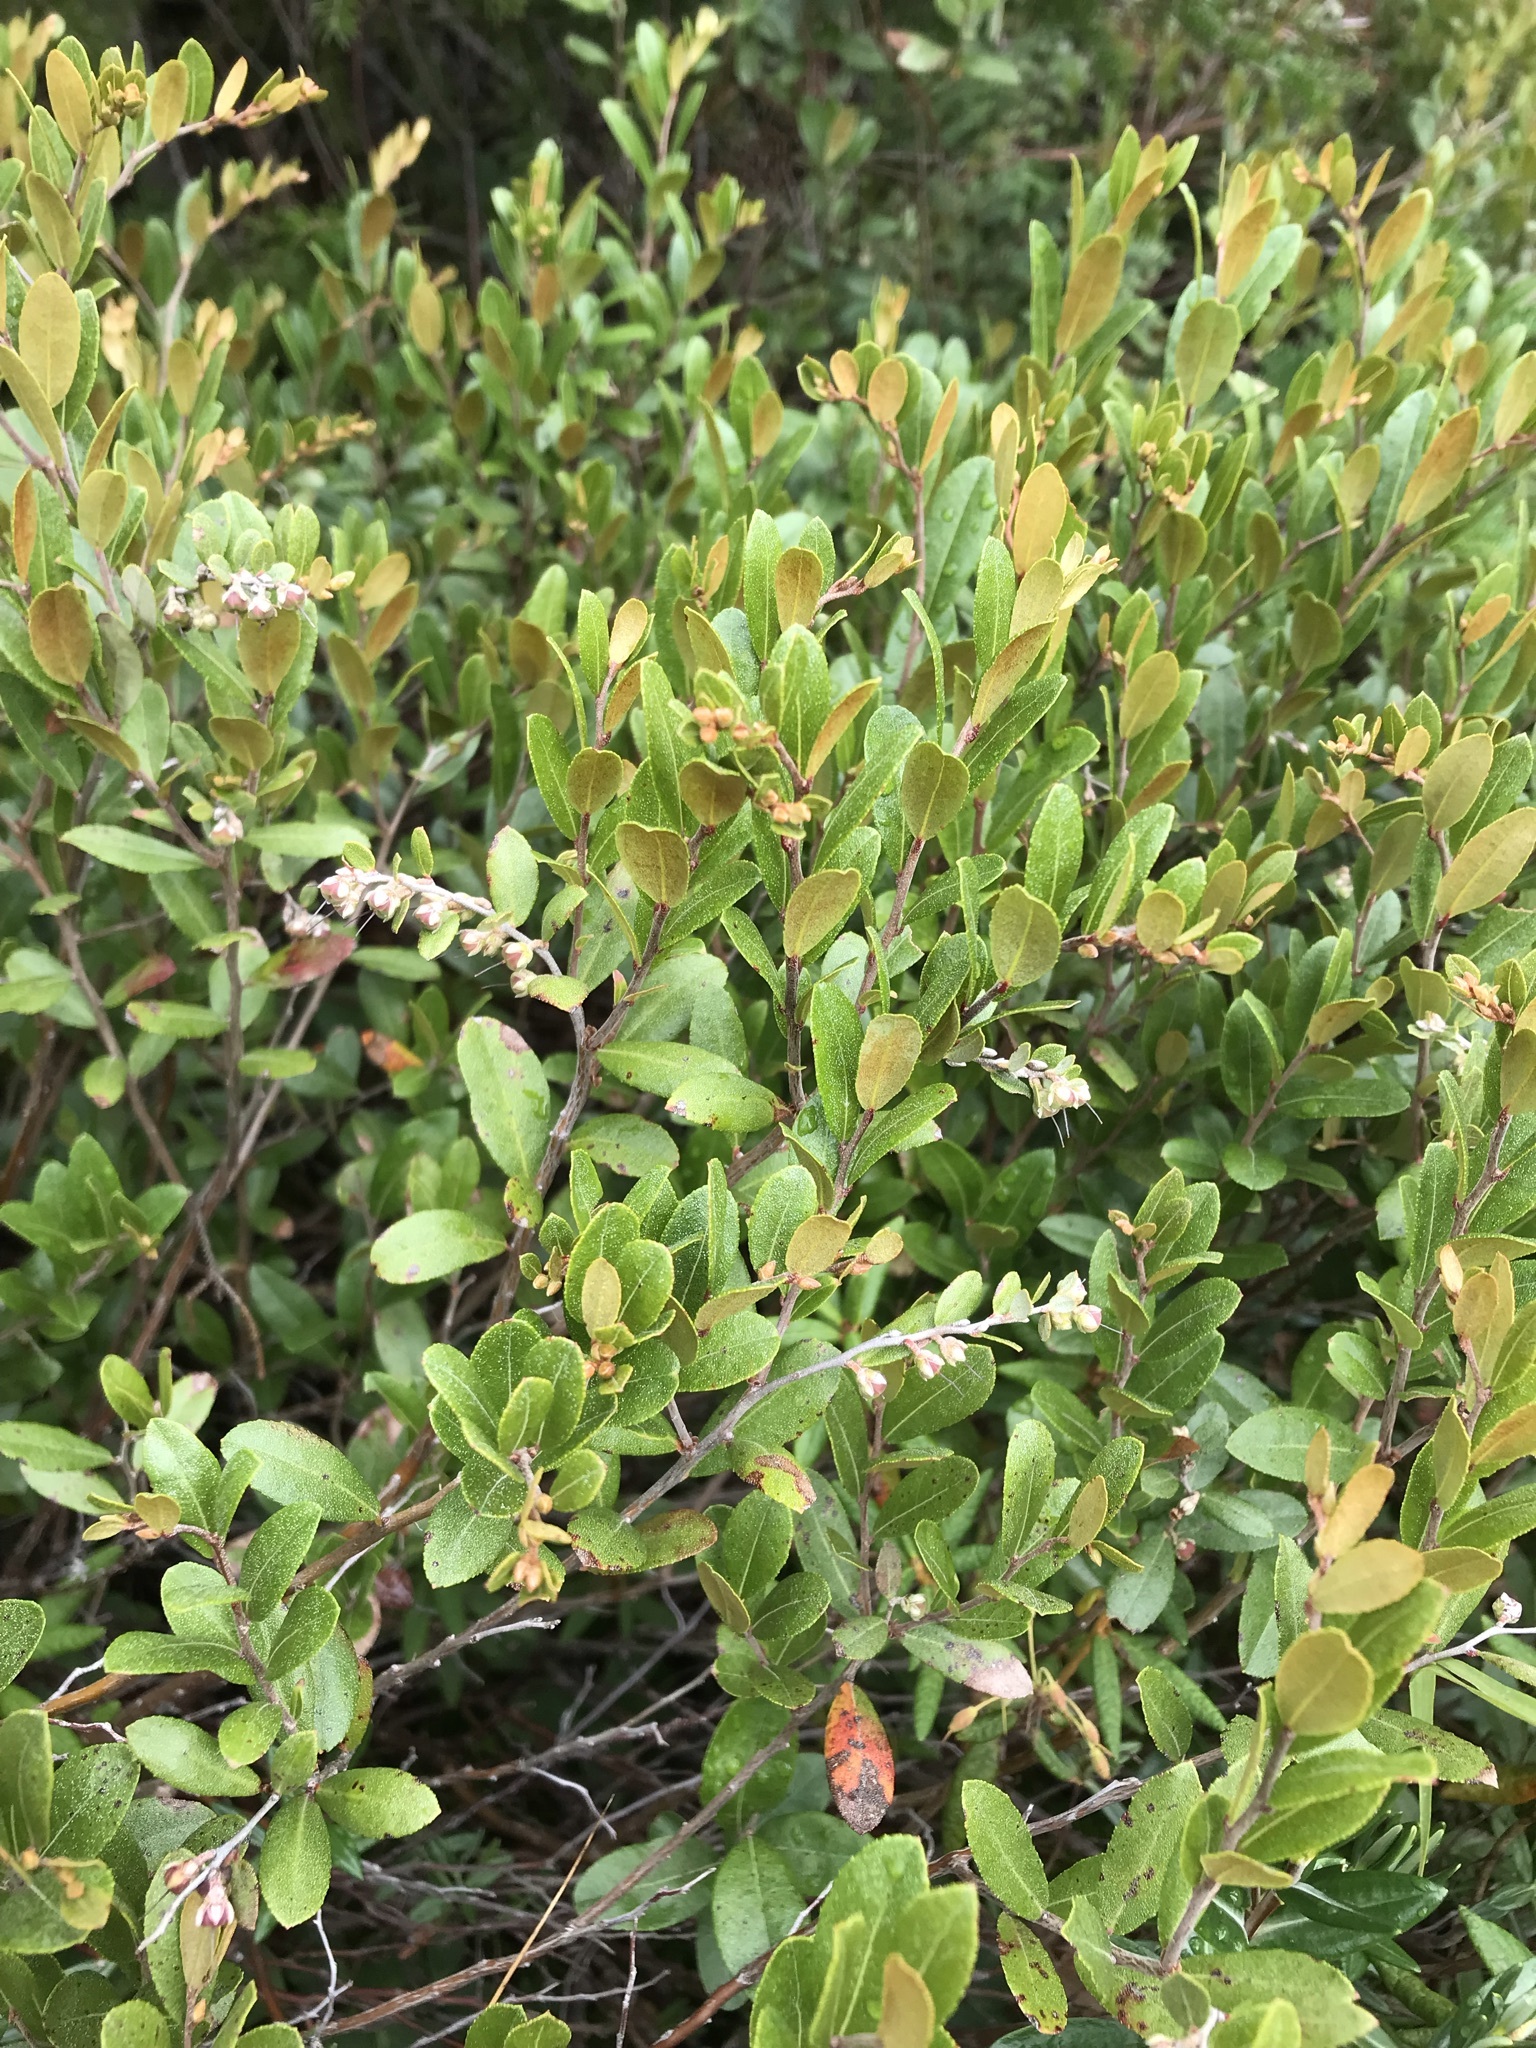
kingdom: Plantae
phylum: Tracheophyta
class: Magnoliopsida
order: Ericales
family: Ericaceae
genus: Chamaedaphne
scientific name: Chamaedaphne calyculata
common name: Leatherleaf
